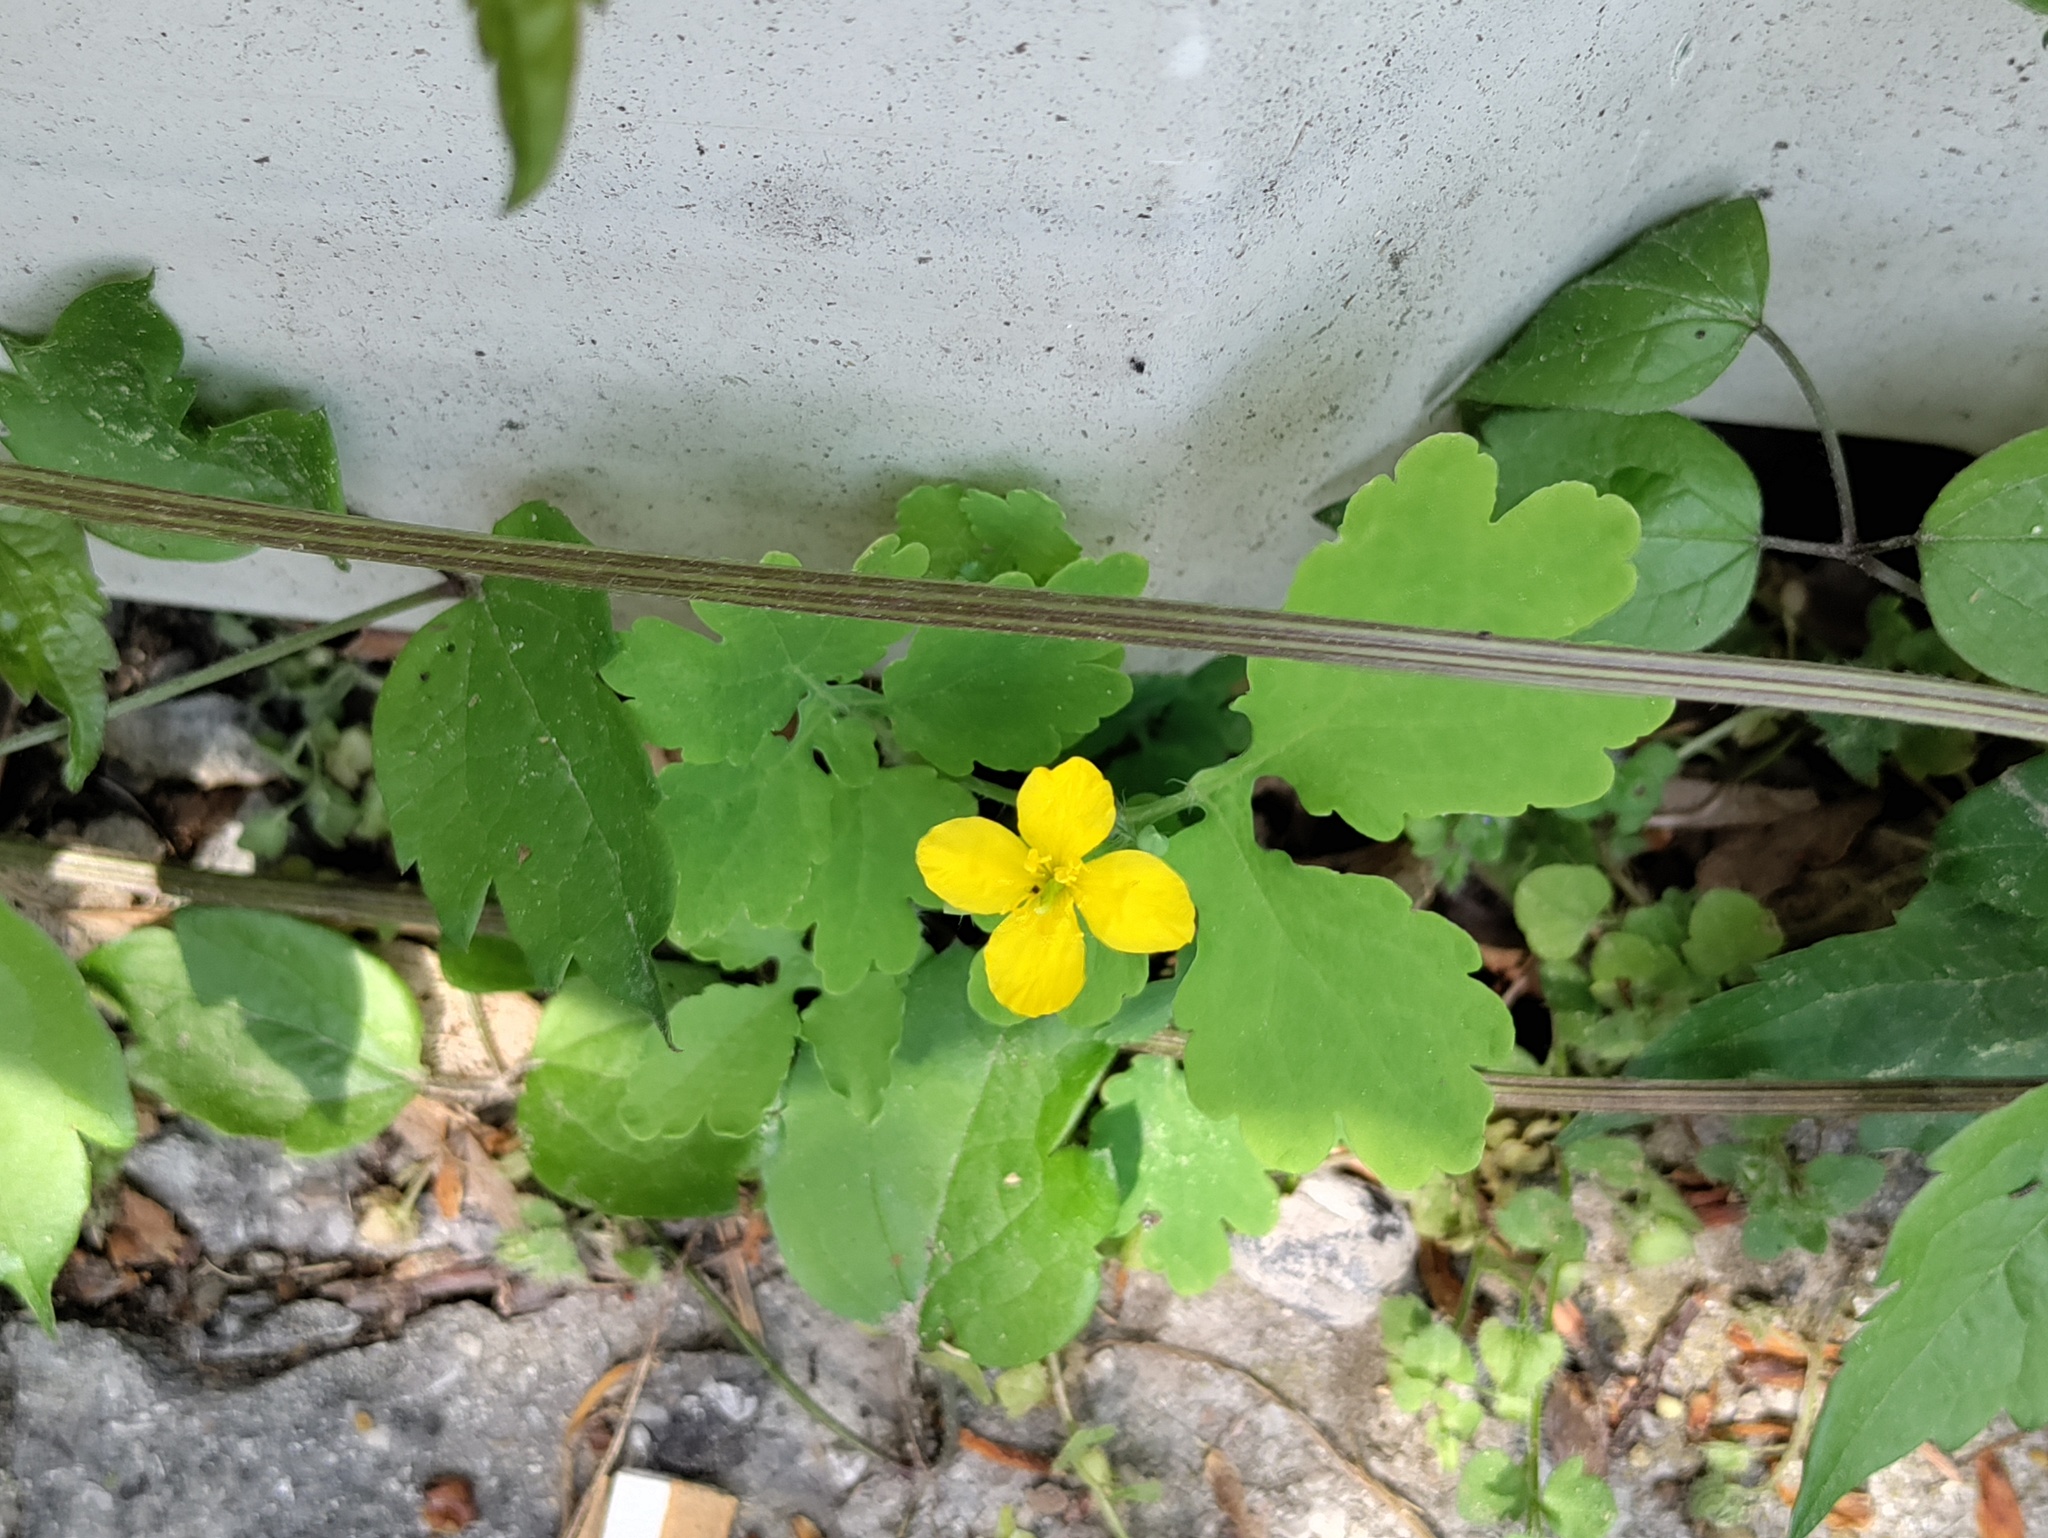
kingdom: Plantae
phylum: Tracheophyta
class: Magnoliopsida
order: Ranunculales
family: Papaveraceae
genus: Chelidonium
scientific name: Chelidonium majus
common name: Greater celandine
